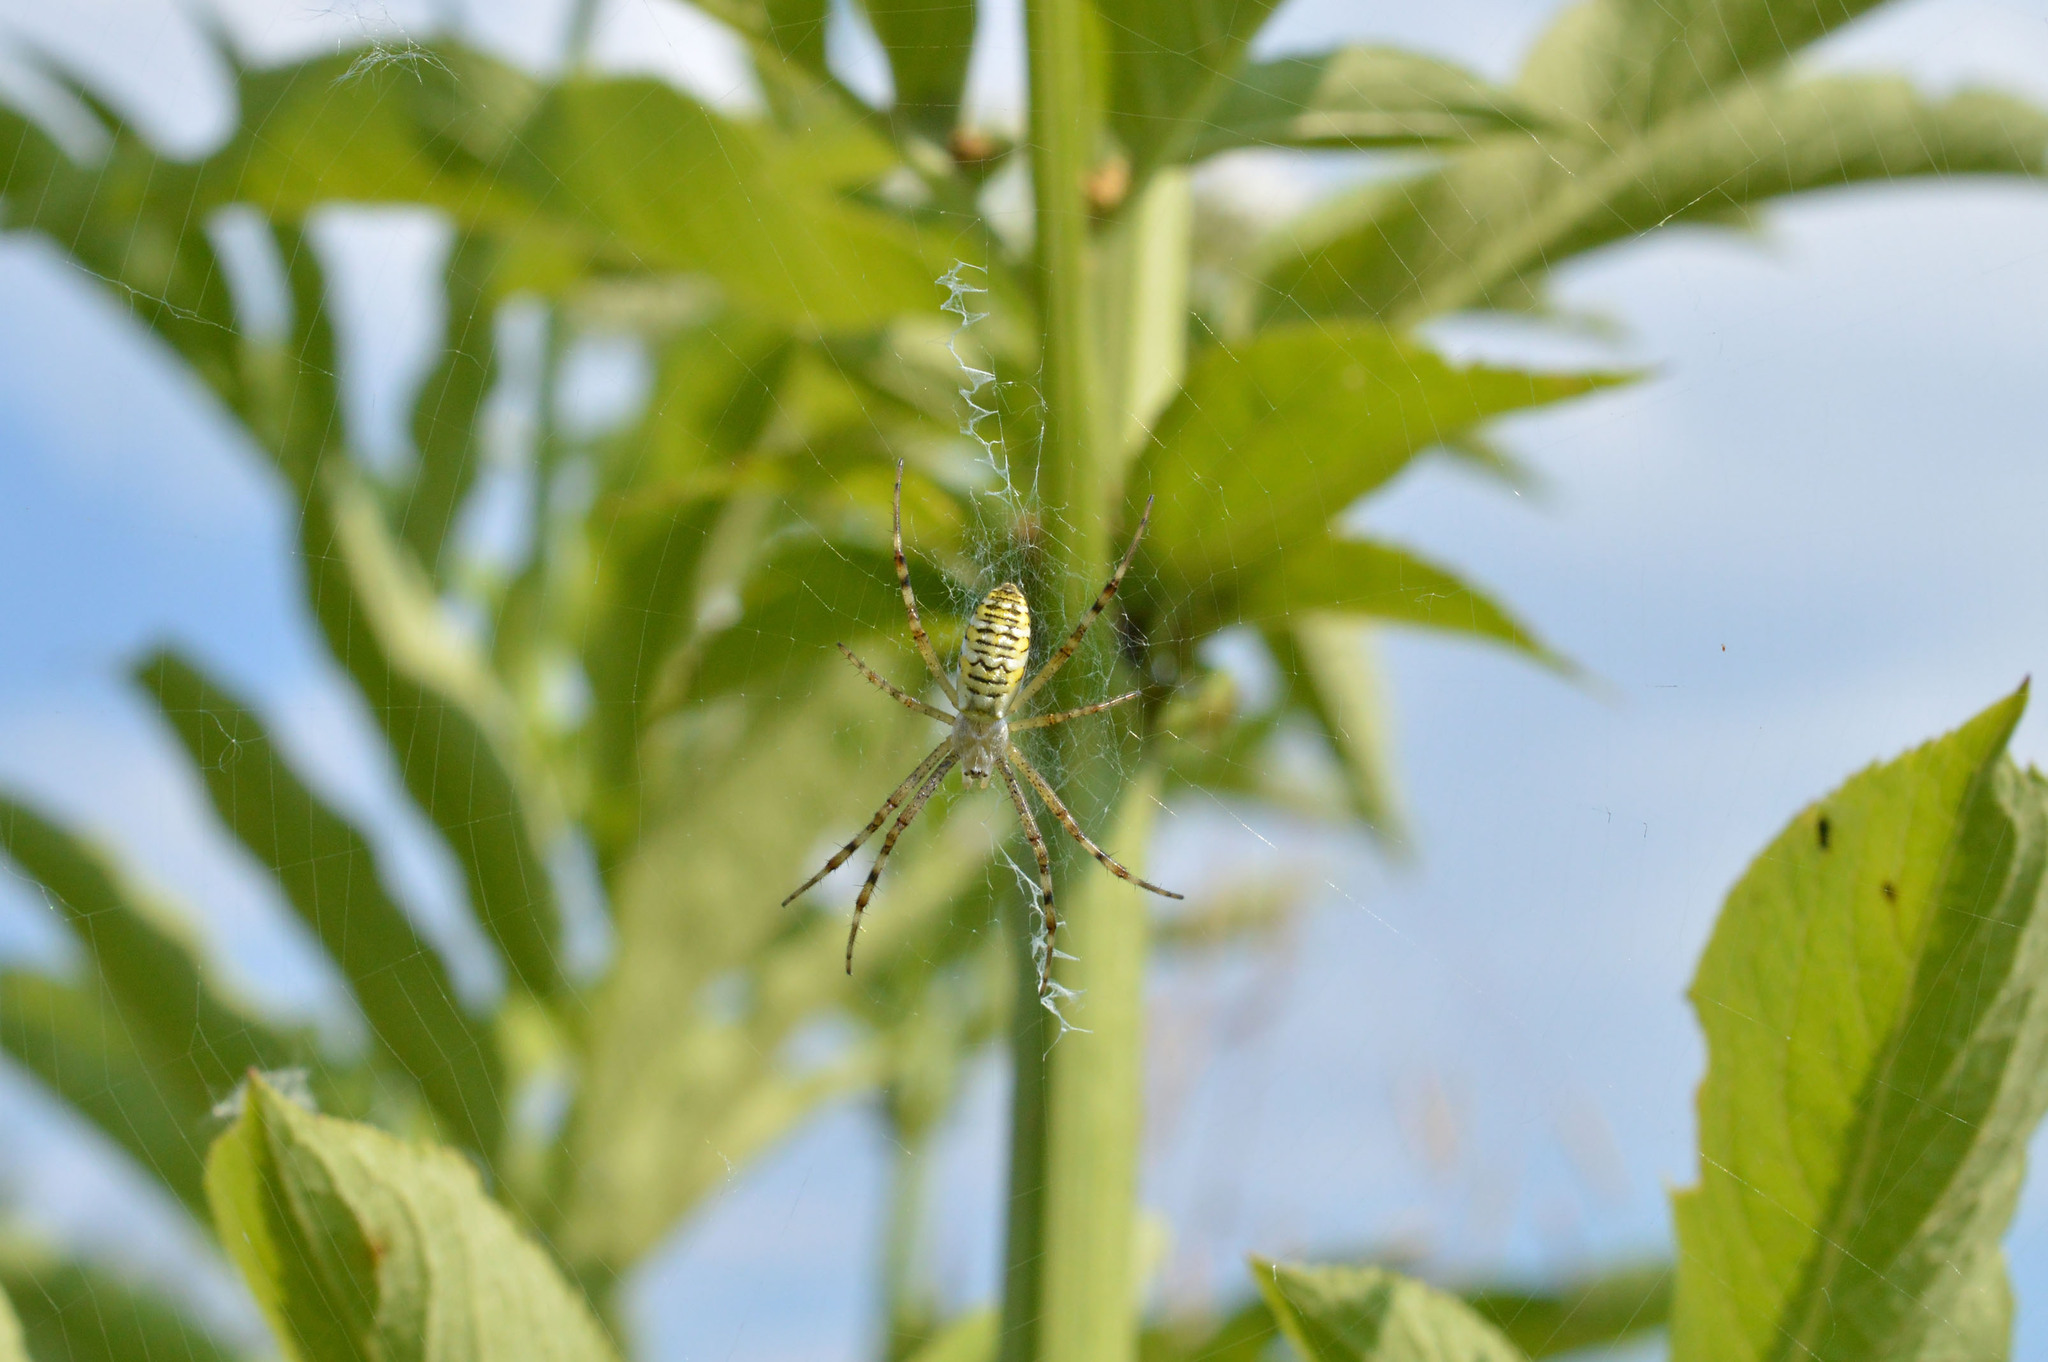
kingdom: Animalia
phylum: Arthropoda
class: Arachnida
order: Araneae
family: Araneidae
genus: Argiope
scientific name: Argiope bruennichi
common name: Wasp spider
